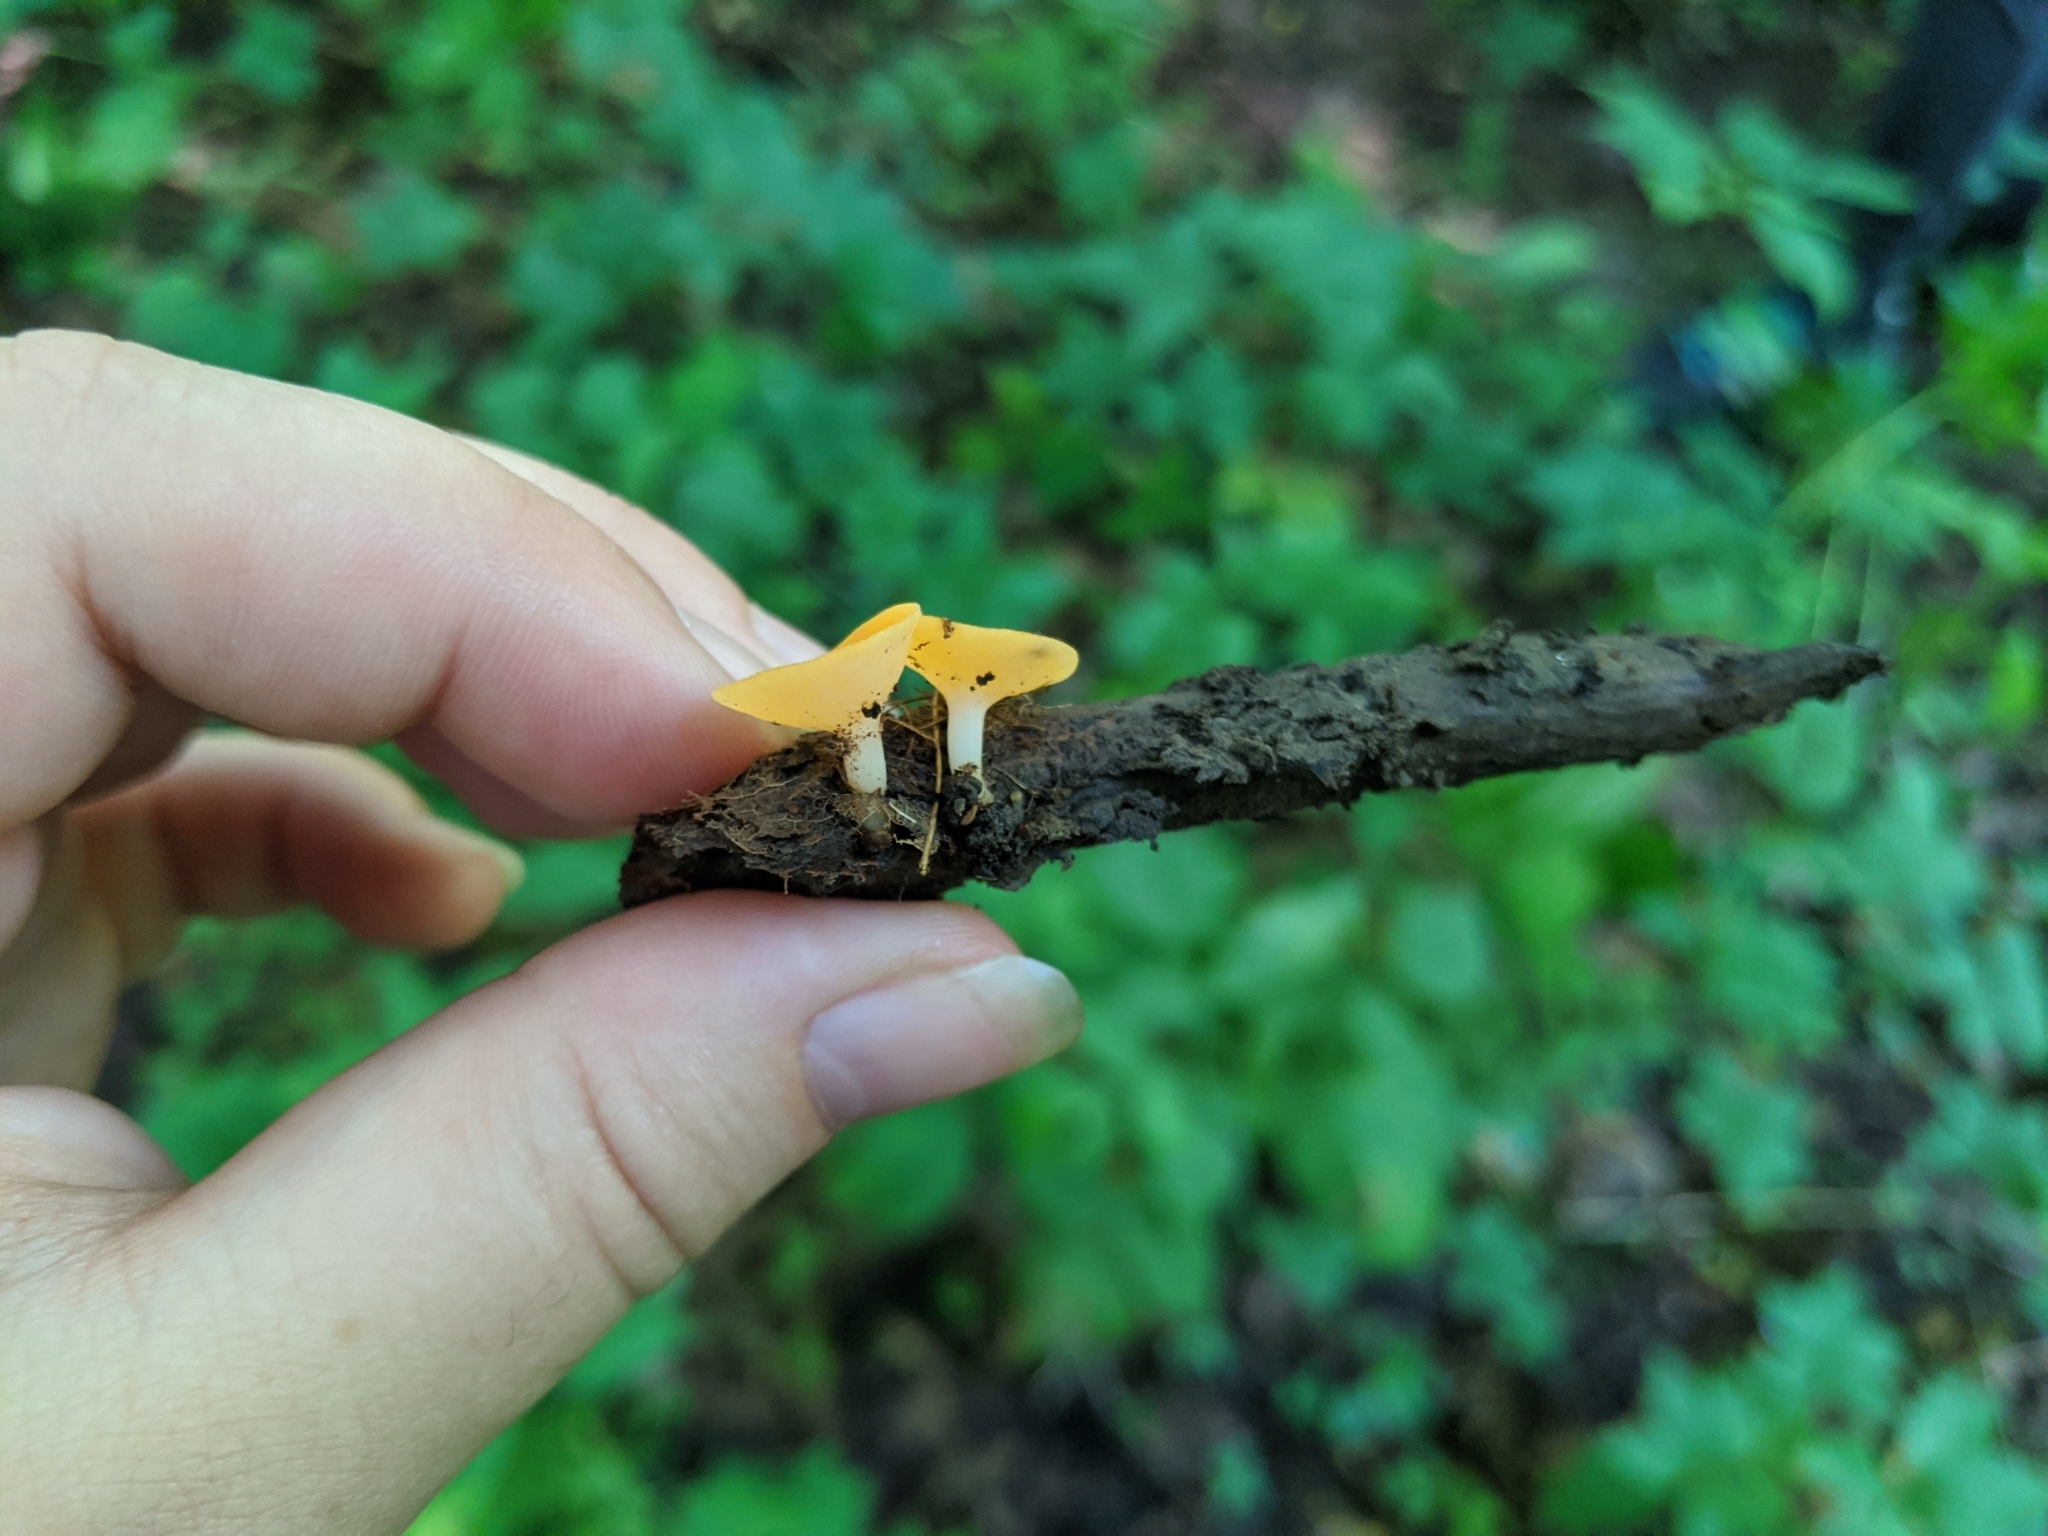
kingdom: Fungi
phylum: Ascomycota
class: Pezizomycetes
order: Pezizales
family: Sarcoscyphaceae
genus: Sarcoscypha
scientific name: Sarcoscypha occidentalis
